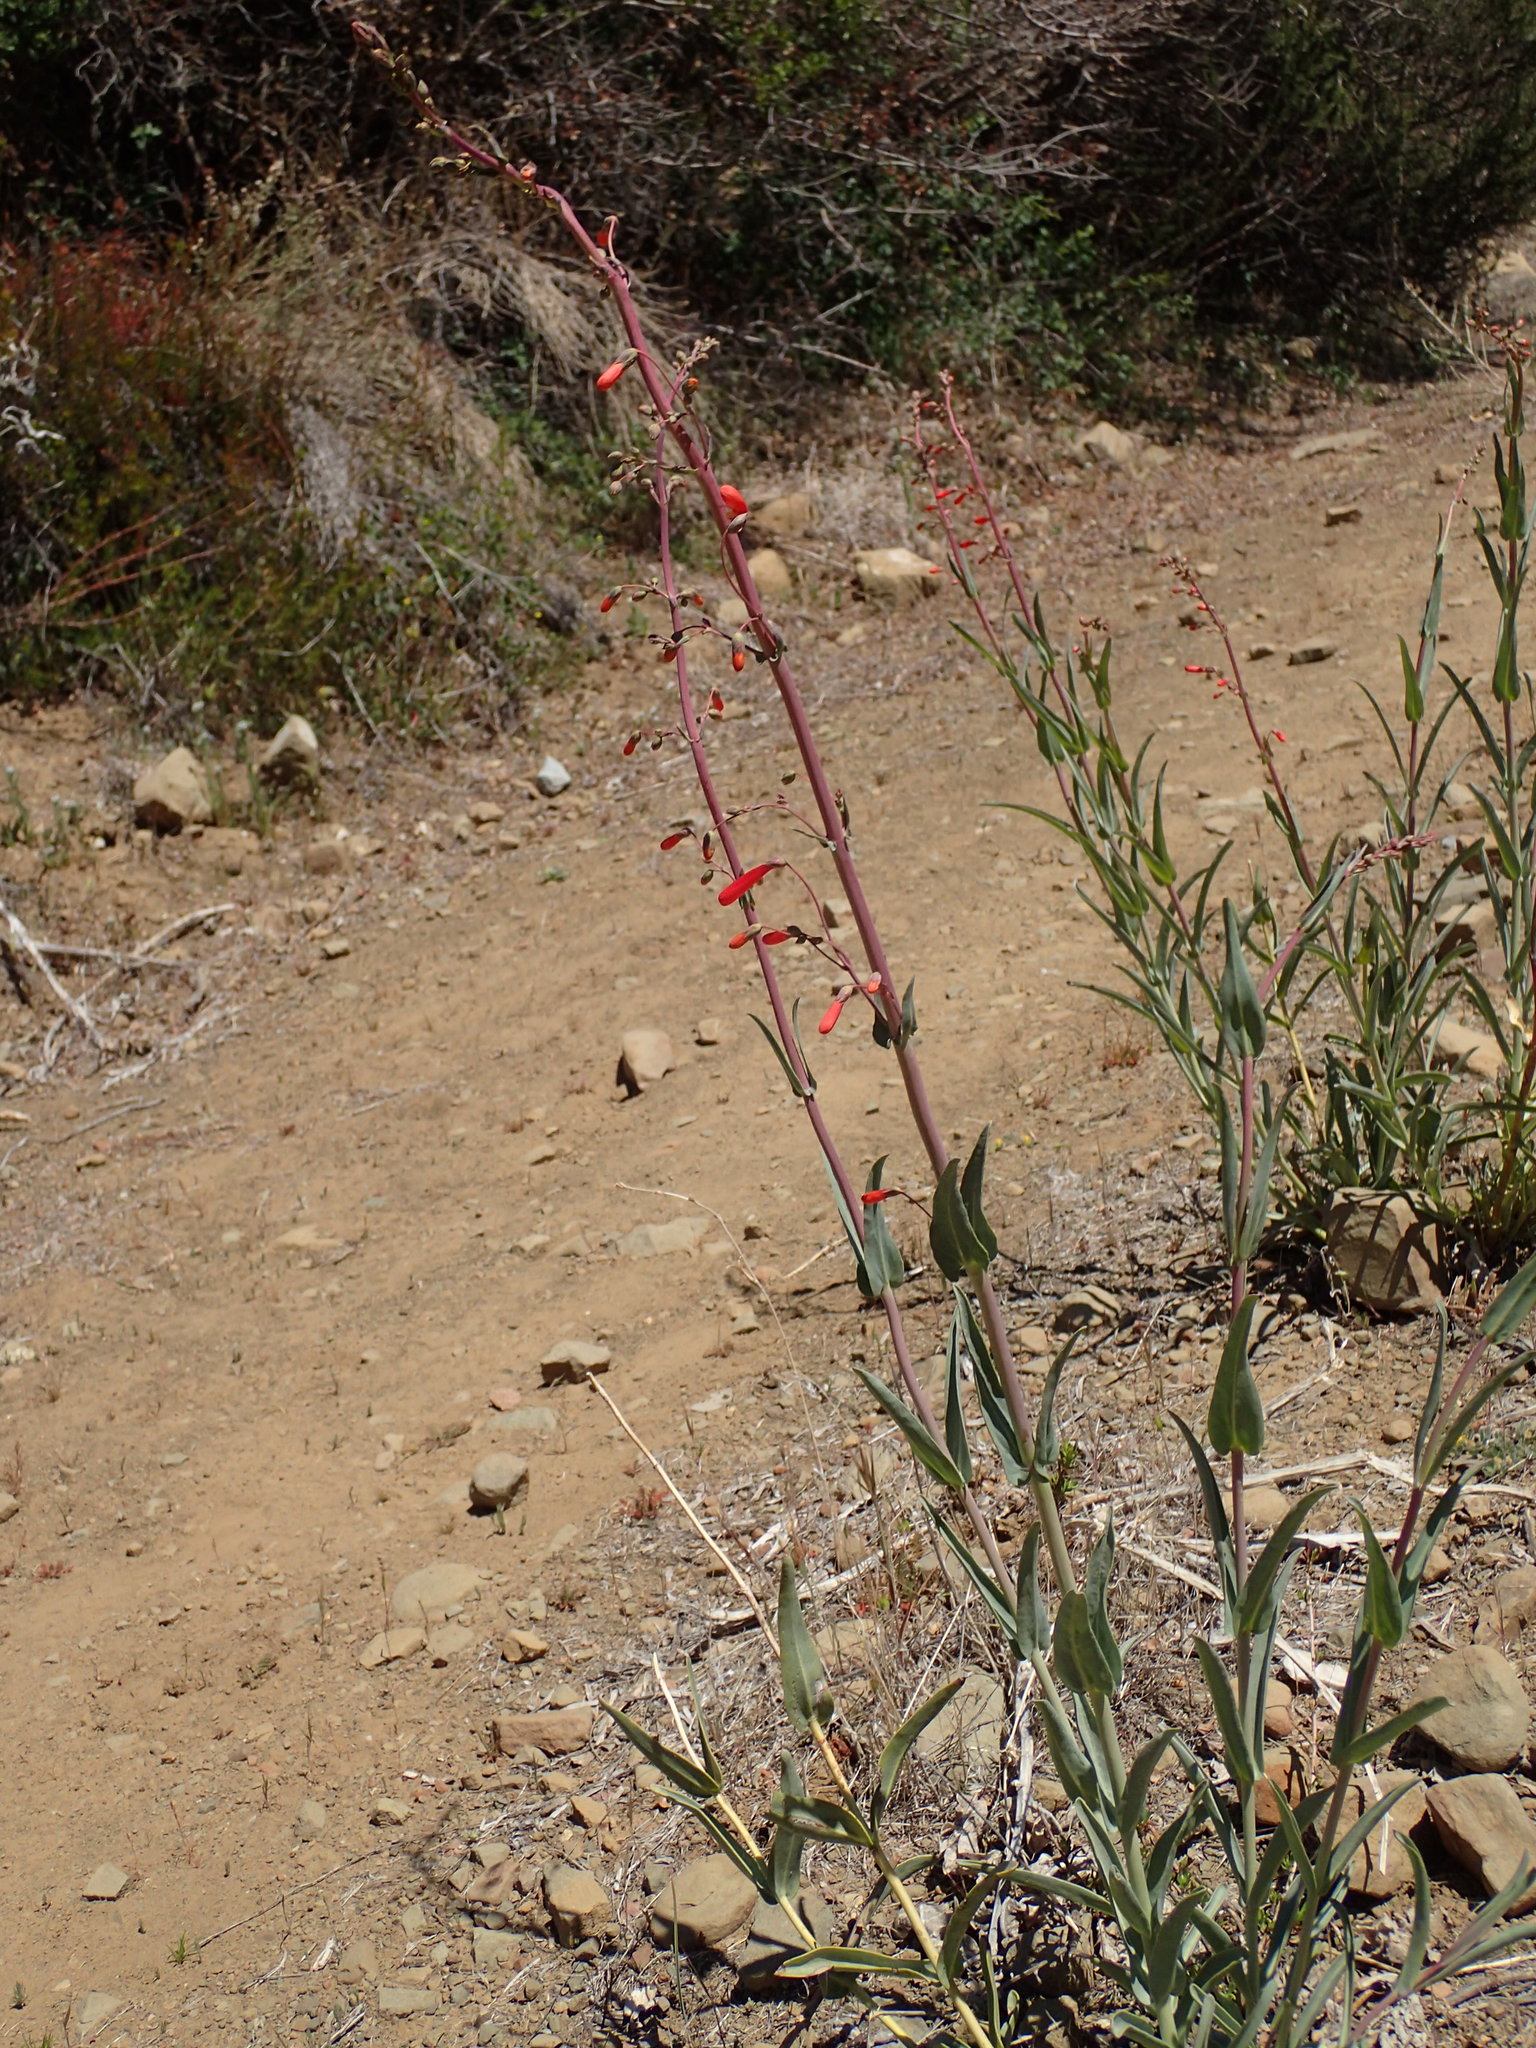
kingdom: Plantae
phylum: Tracheophyta
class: Magnoliopsida
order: Lamiales
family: Plantaginaceae
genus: Penstemon
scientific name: Penstemon centranthifolius
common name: Scarlet bugler
